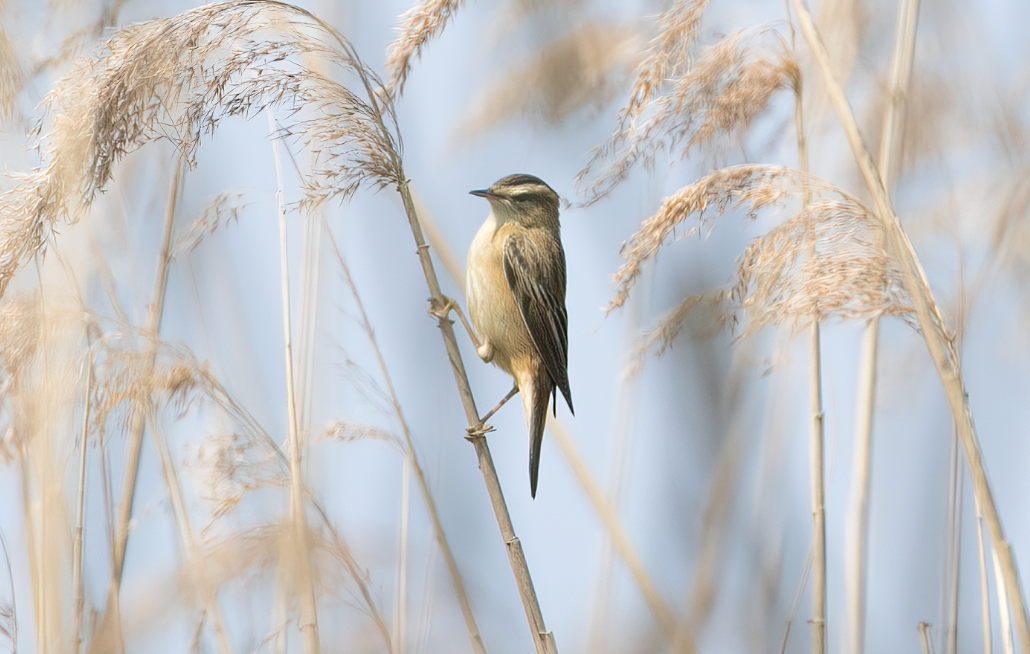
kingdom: Animalia
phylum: Chordata
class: Aves
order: Passeriformes
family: Acrocephalidae
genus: Acrocephalus
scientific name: Acrocephalus schoenobaenus
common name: Sedge warbler
